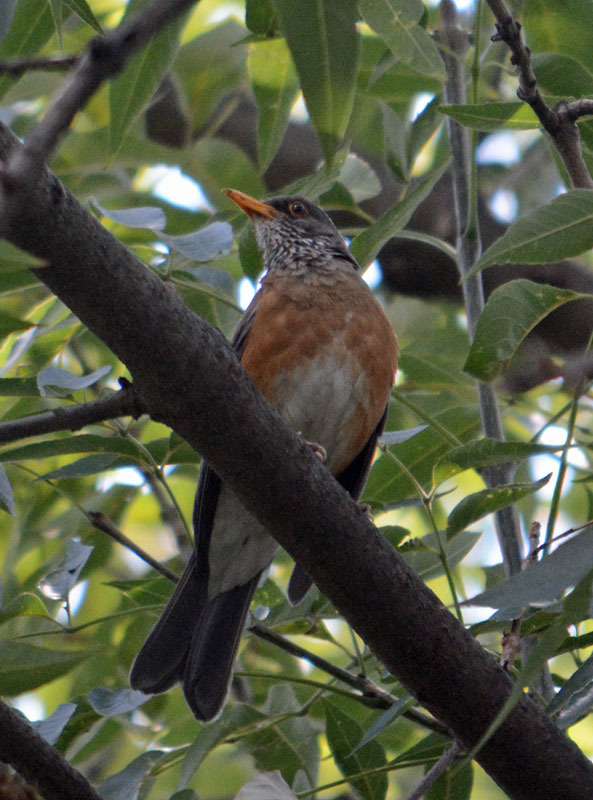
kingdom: Animalia
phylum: Chordata
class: Aves
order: Passeriformes
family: Turdidae
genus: Turdus
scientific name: Turdus rufopalliatus
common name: Rufous-backed robin
